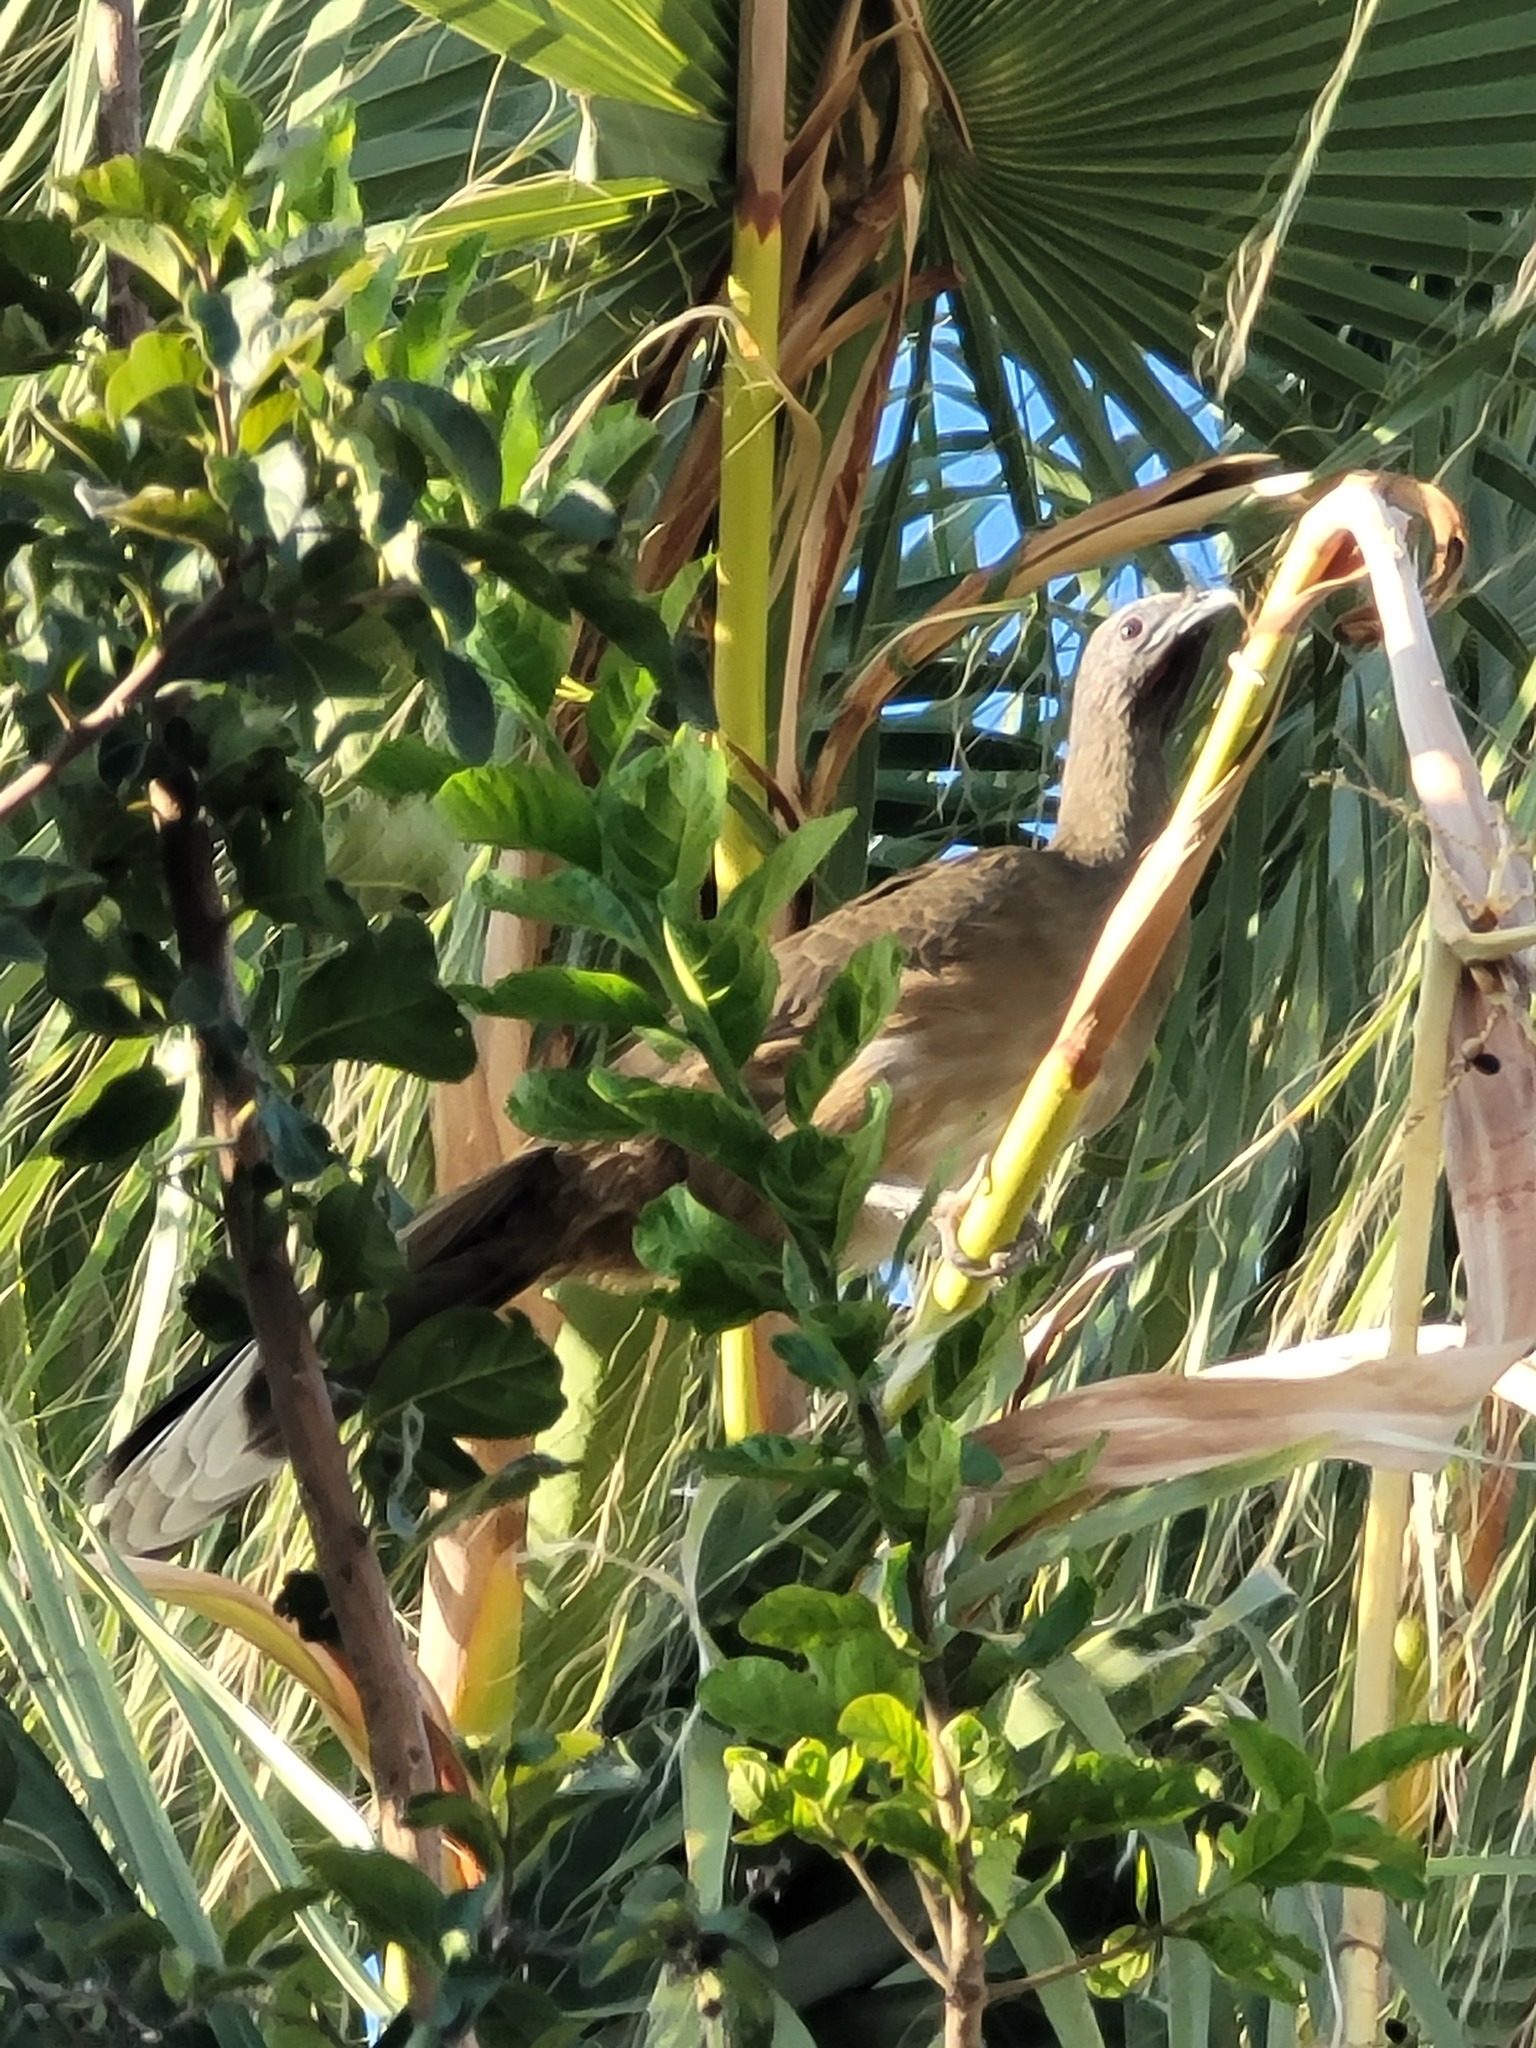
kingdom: Animalia
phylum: Chordata
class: Aves
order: Galliformes
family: Cracidae
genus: Ortalis
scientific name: Ortalis vetula
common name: Plain chachalaca
